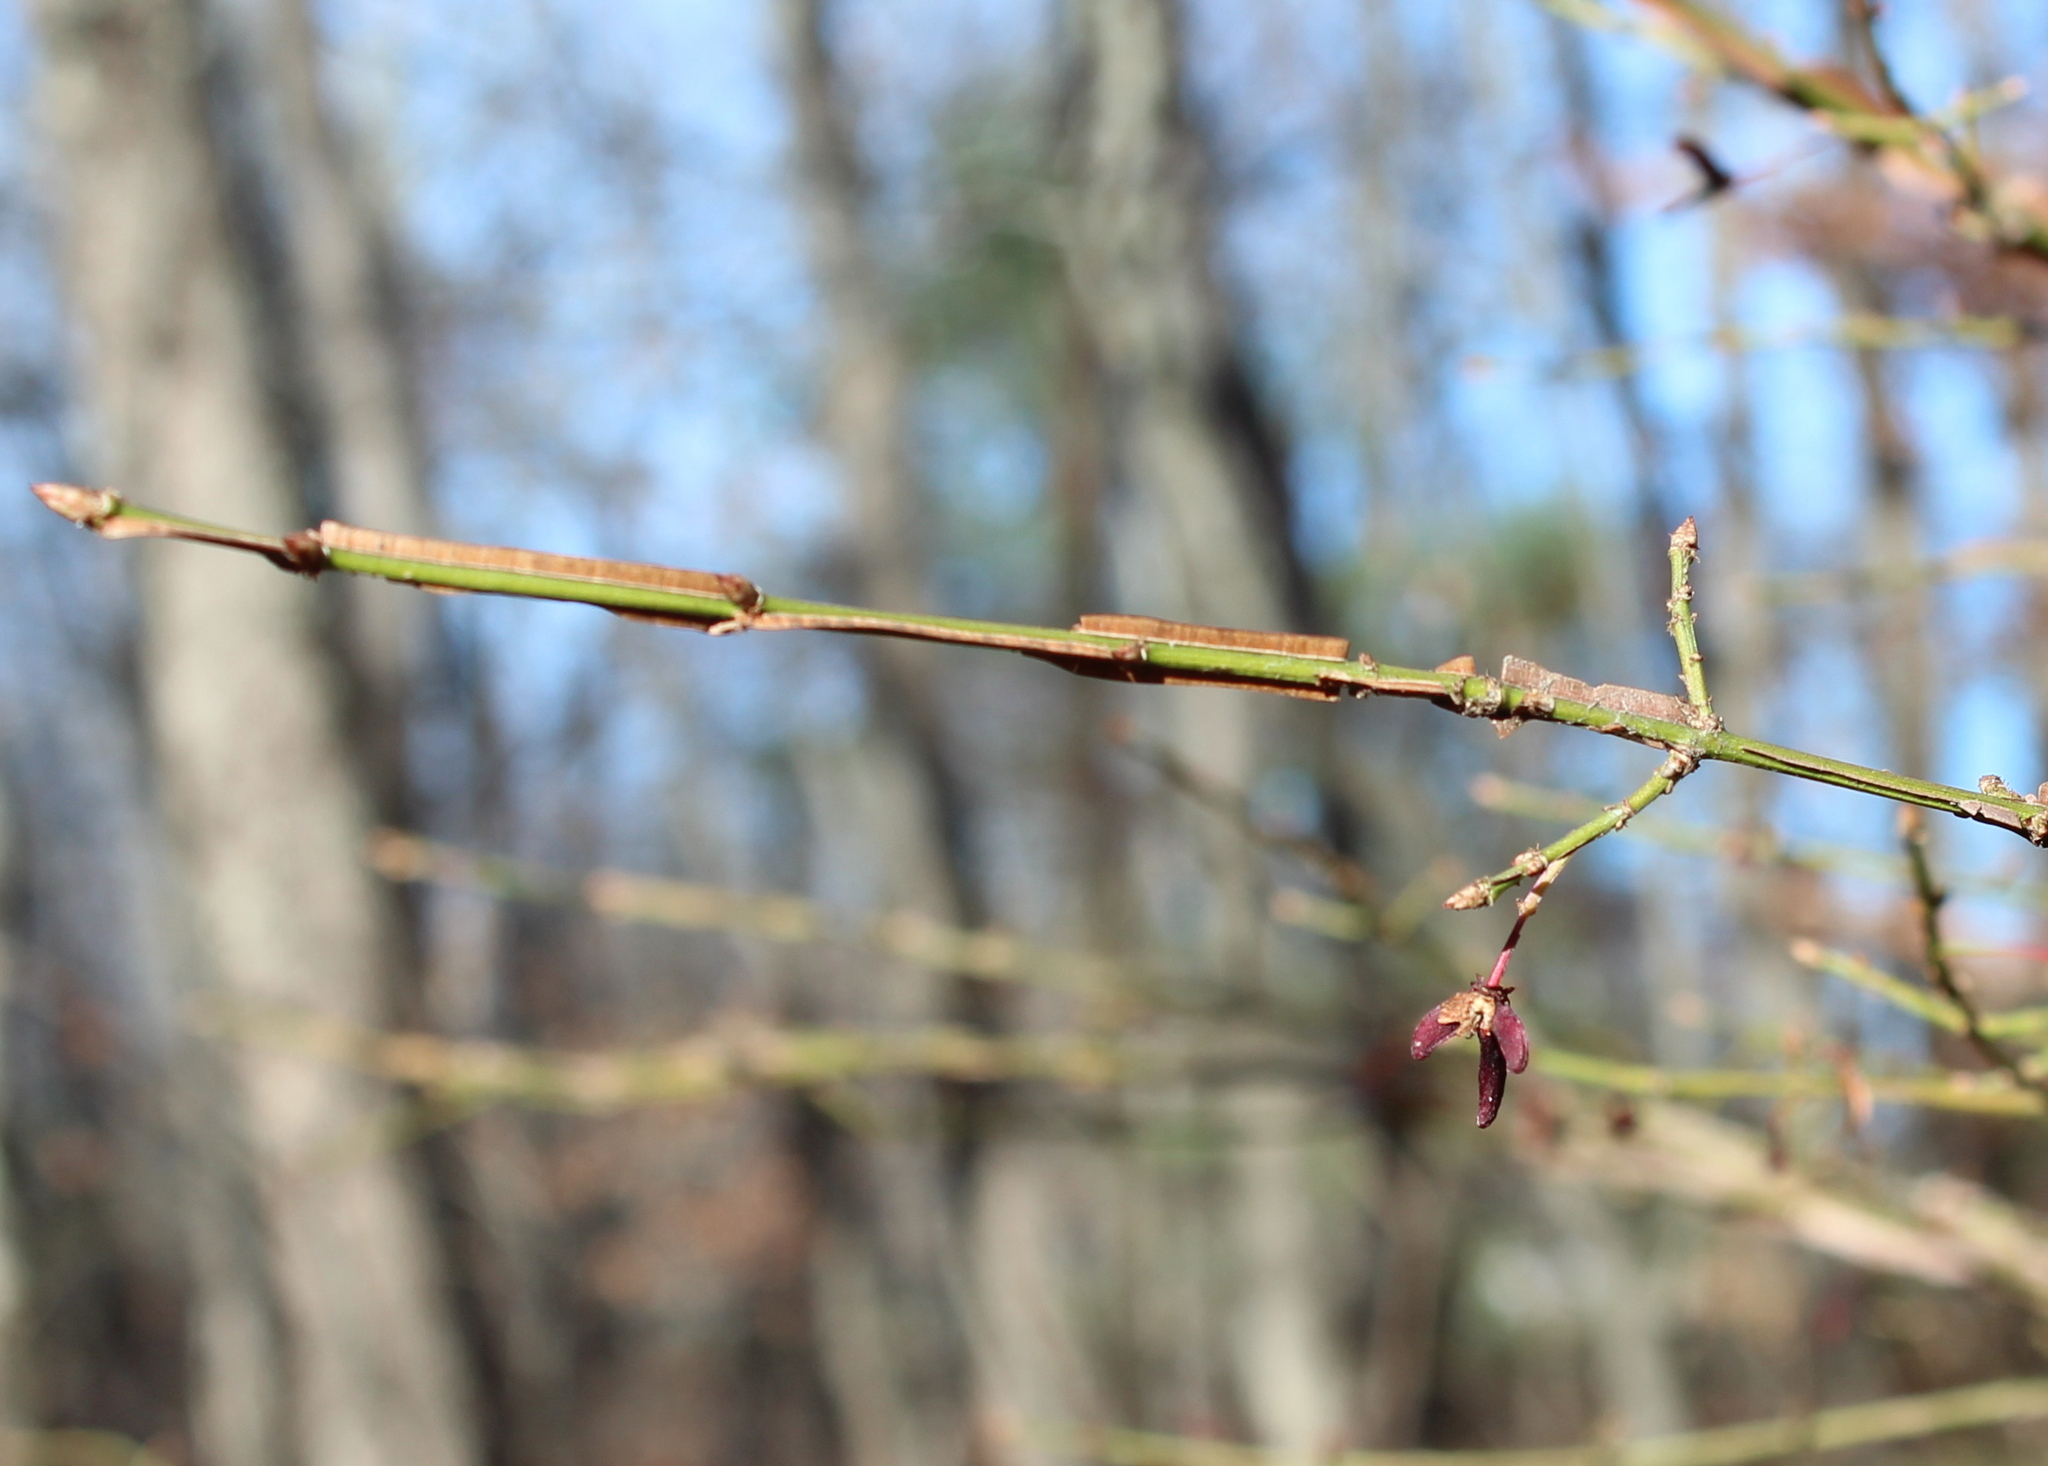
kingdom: Plantae
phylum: Tracheophyta
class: Magnoliopsida
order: Celastrales
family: Celastraceae
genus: Euonymus
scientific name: Euonymus alatus
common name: Winged euonymus
